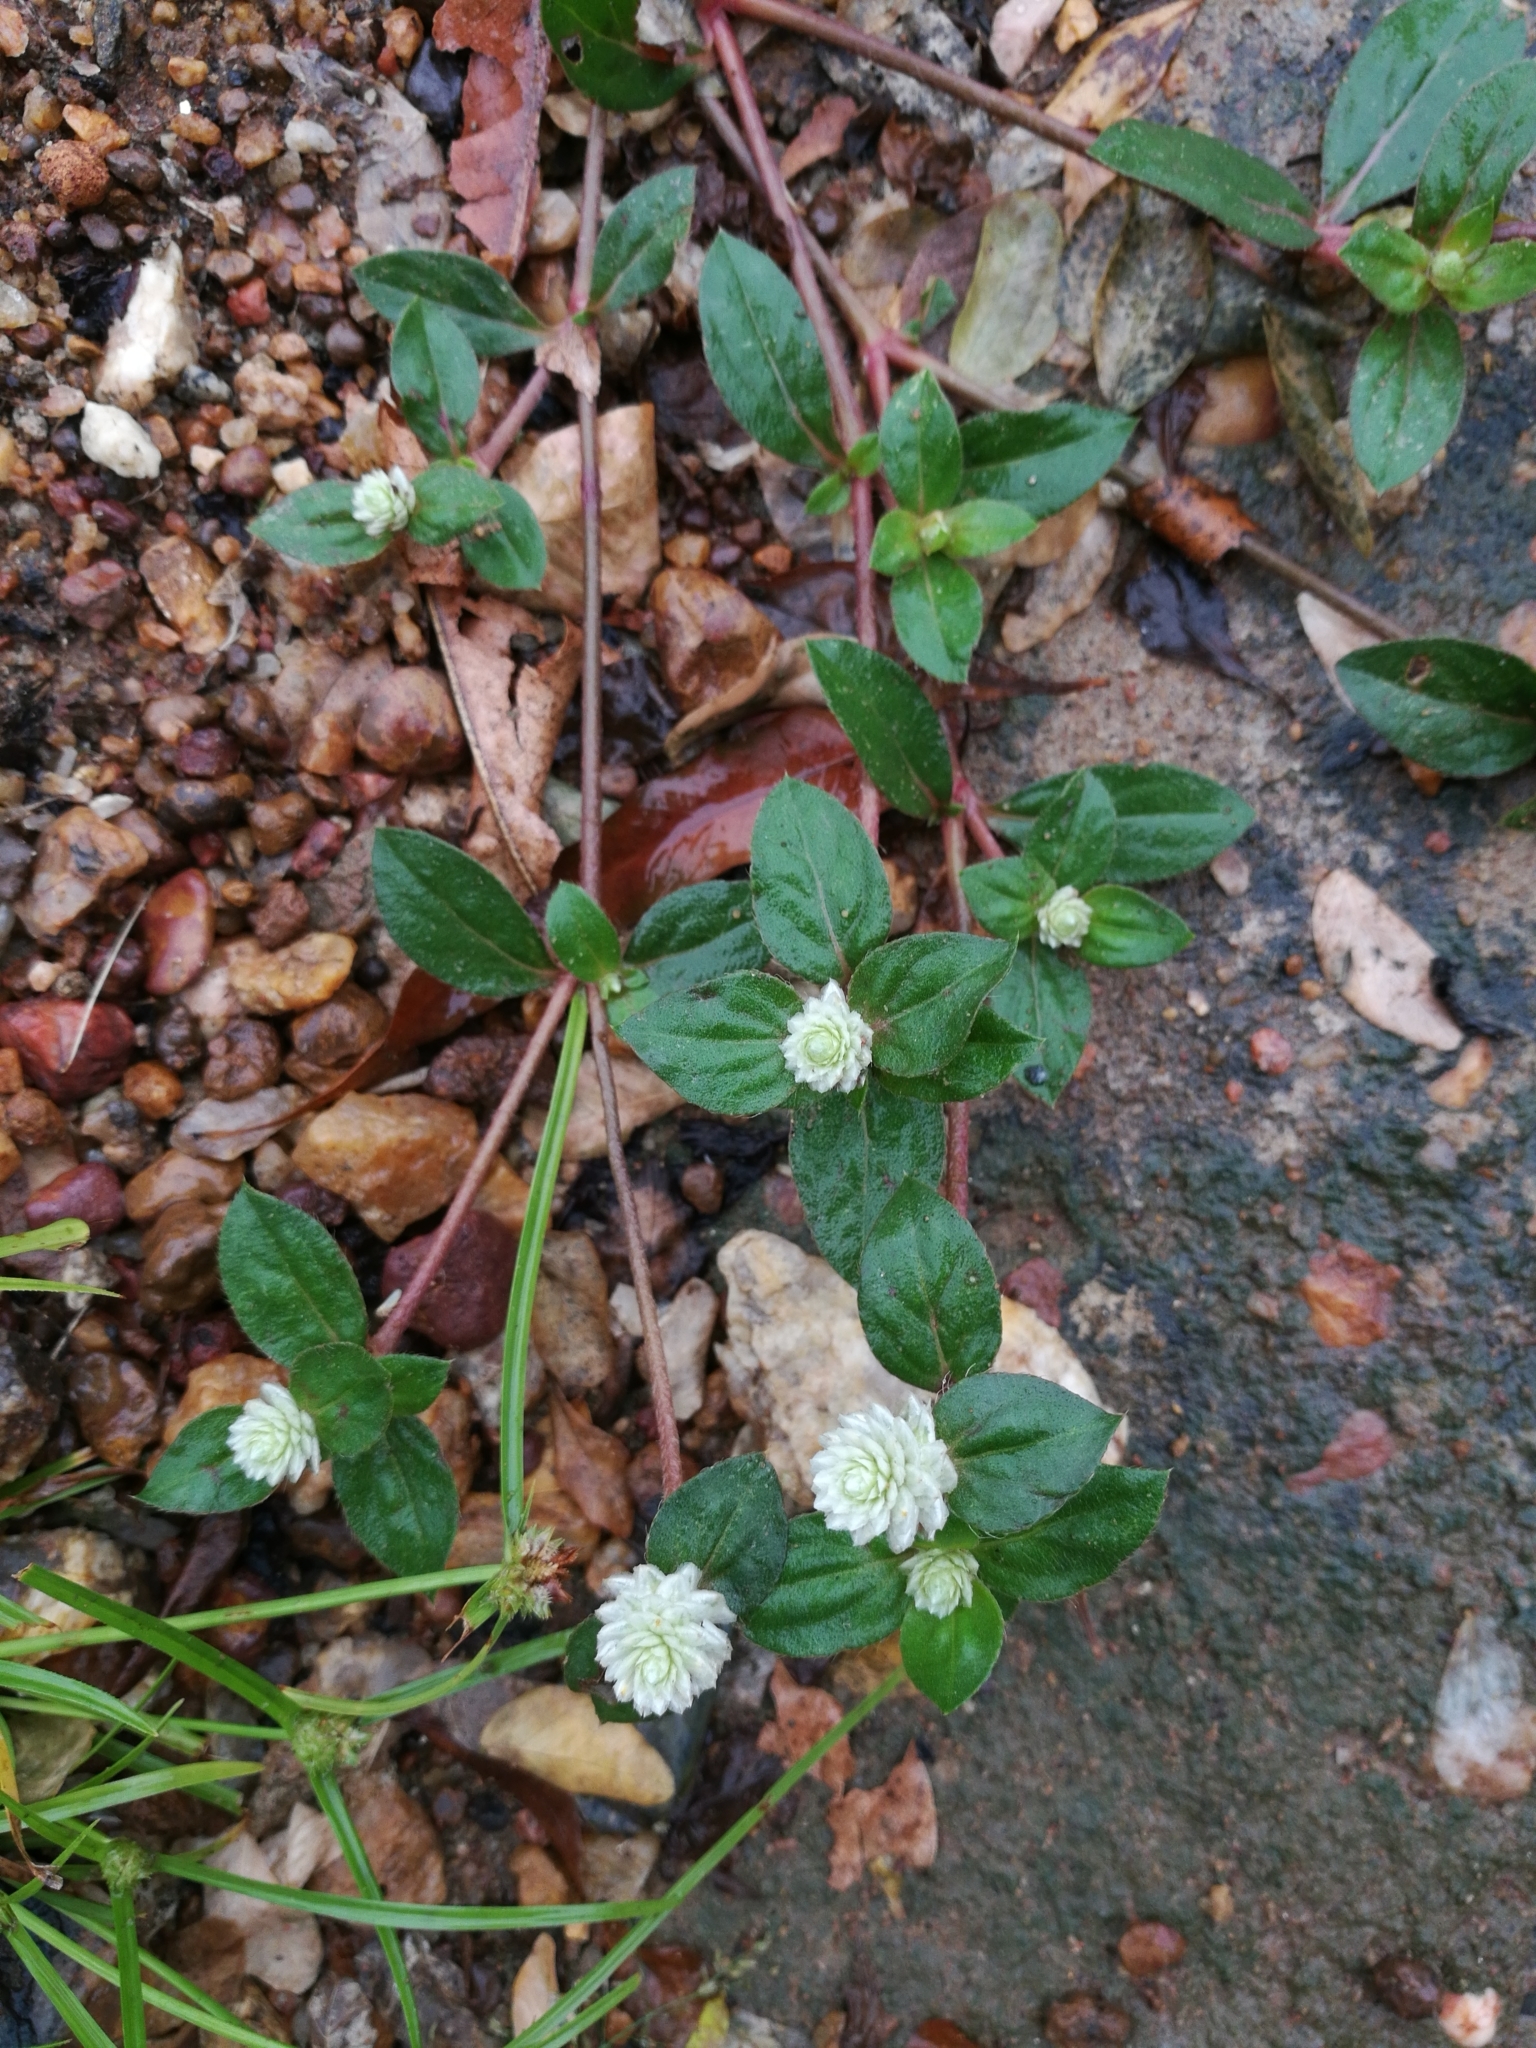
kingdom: Plantae
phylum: Tracheophyta
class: Magnoliopsida
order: Caryophyllales
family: Amaranthaceae
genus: Gomphrena
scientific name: Gomphrena celosioides
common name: Gomphrena-weed
